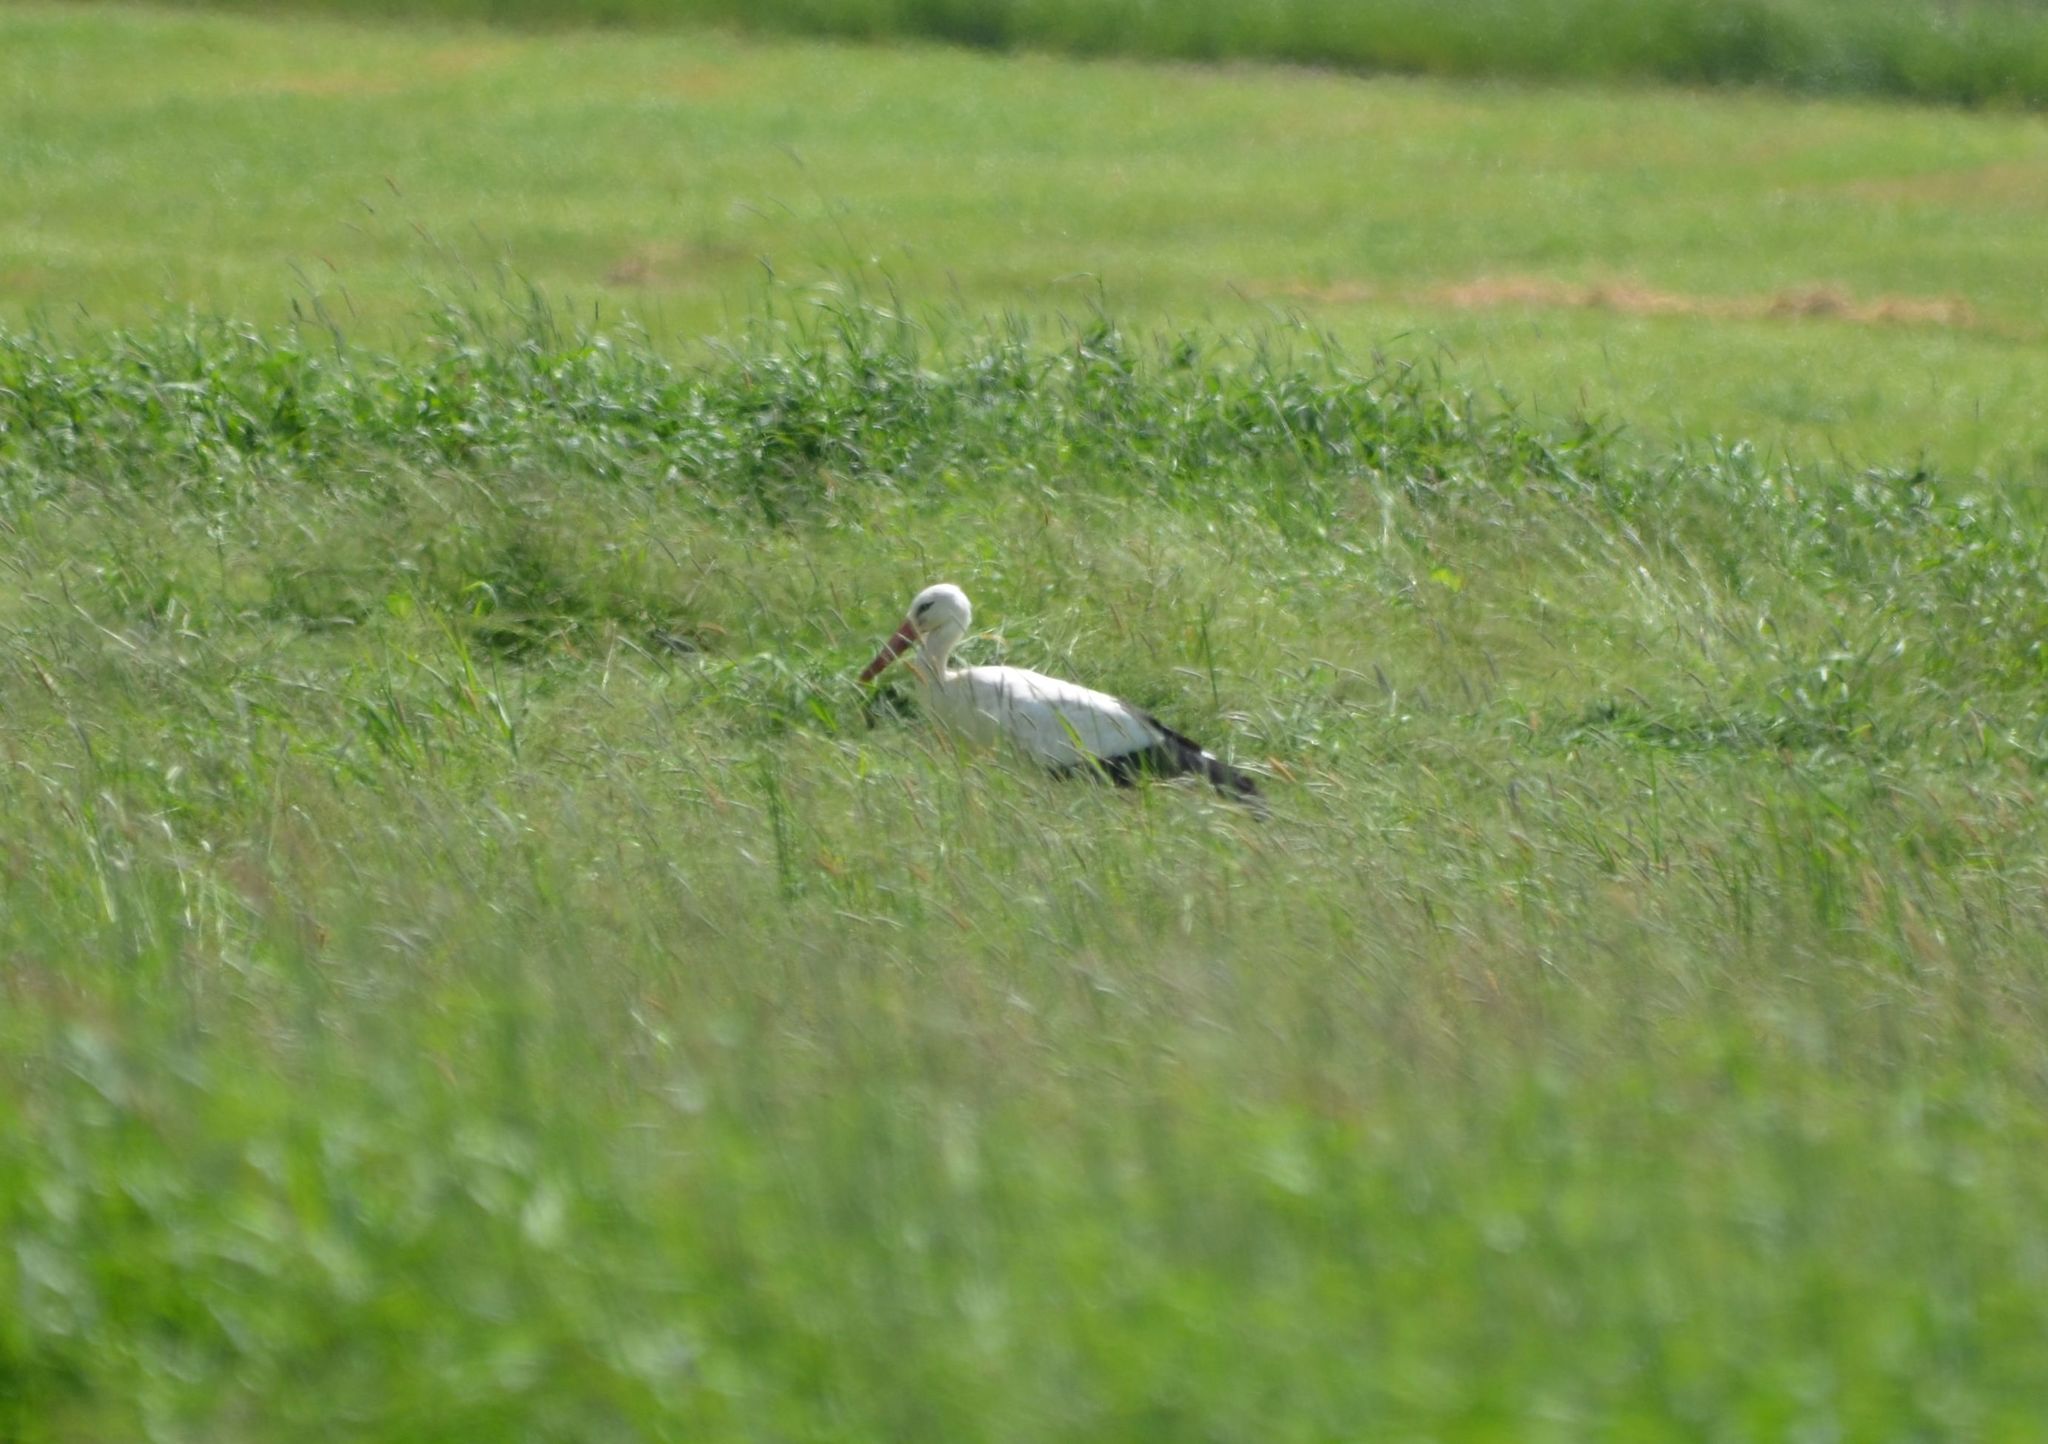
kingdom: Animalia
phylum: Chordata
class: Aves
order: Ciconiiformes
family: Ciconiidae
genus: Ciconia
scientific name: Ciconia ciconia
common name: White stork
